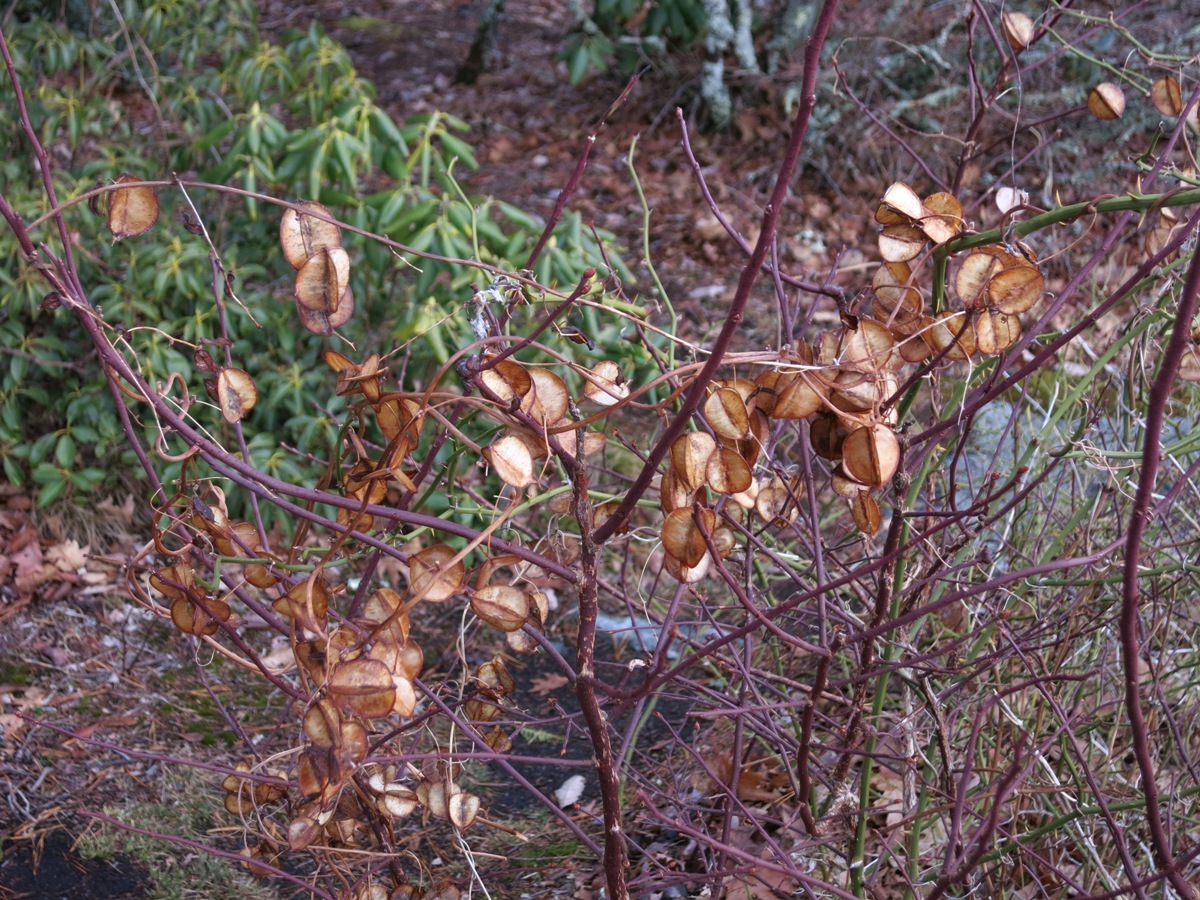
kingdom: Plantae
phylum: Tracheophyta
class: Liliopsida
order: Dioscoreales
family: Dioscoreaceae
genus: Dioscorea
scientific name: Dioscorea villosa
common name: Wild yam
